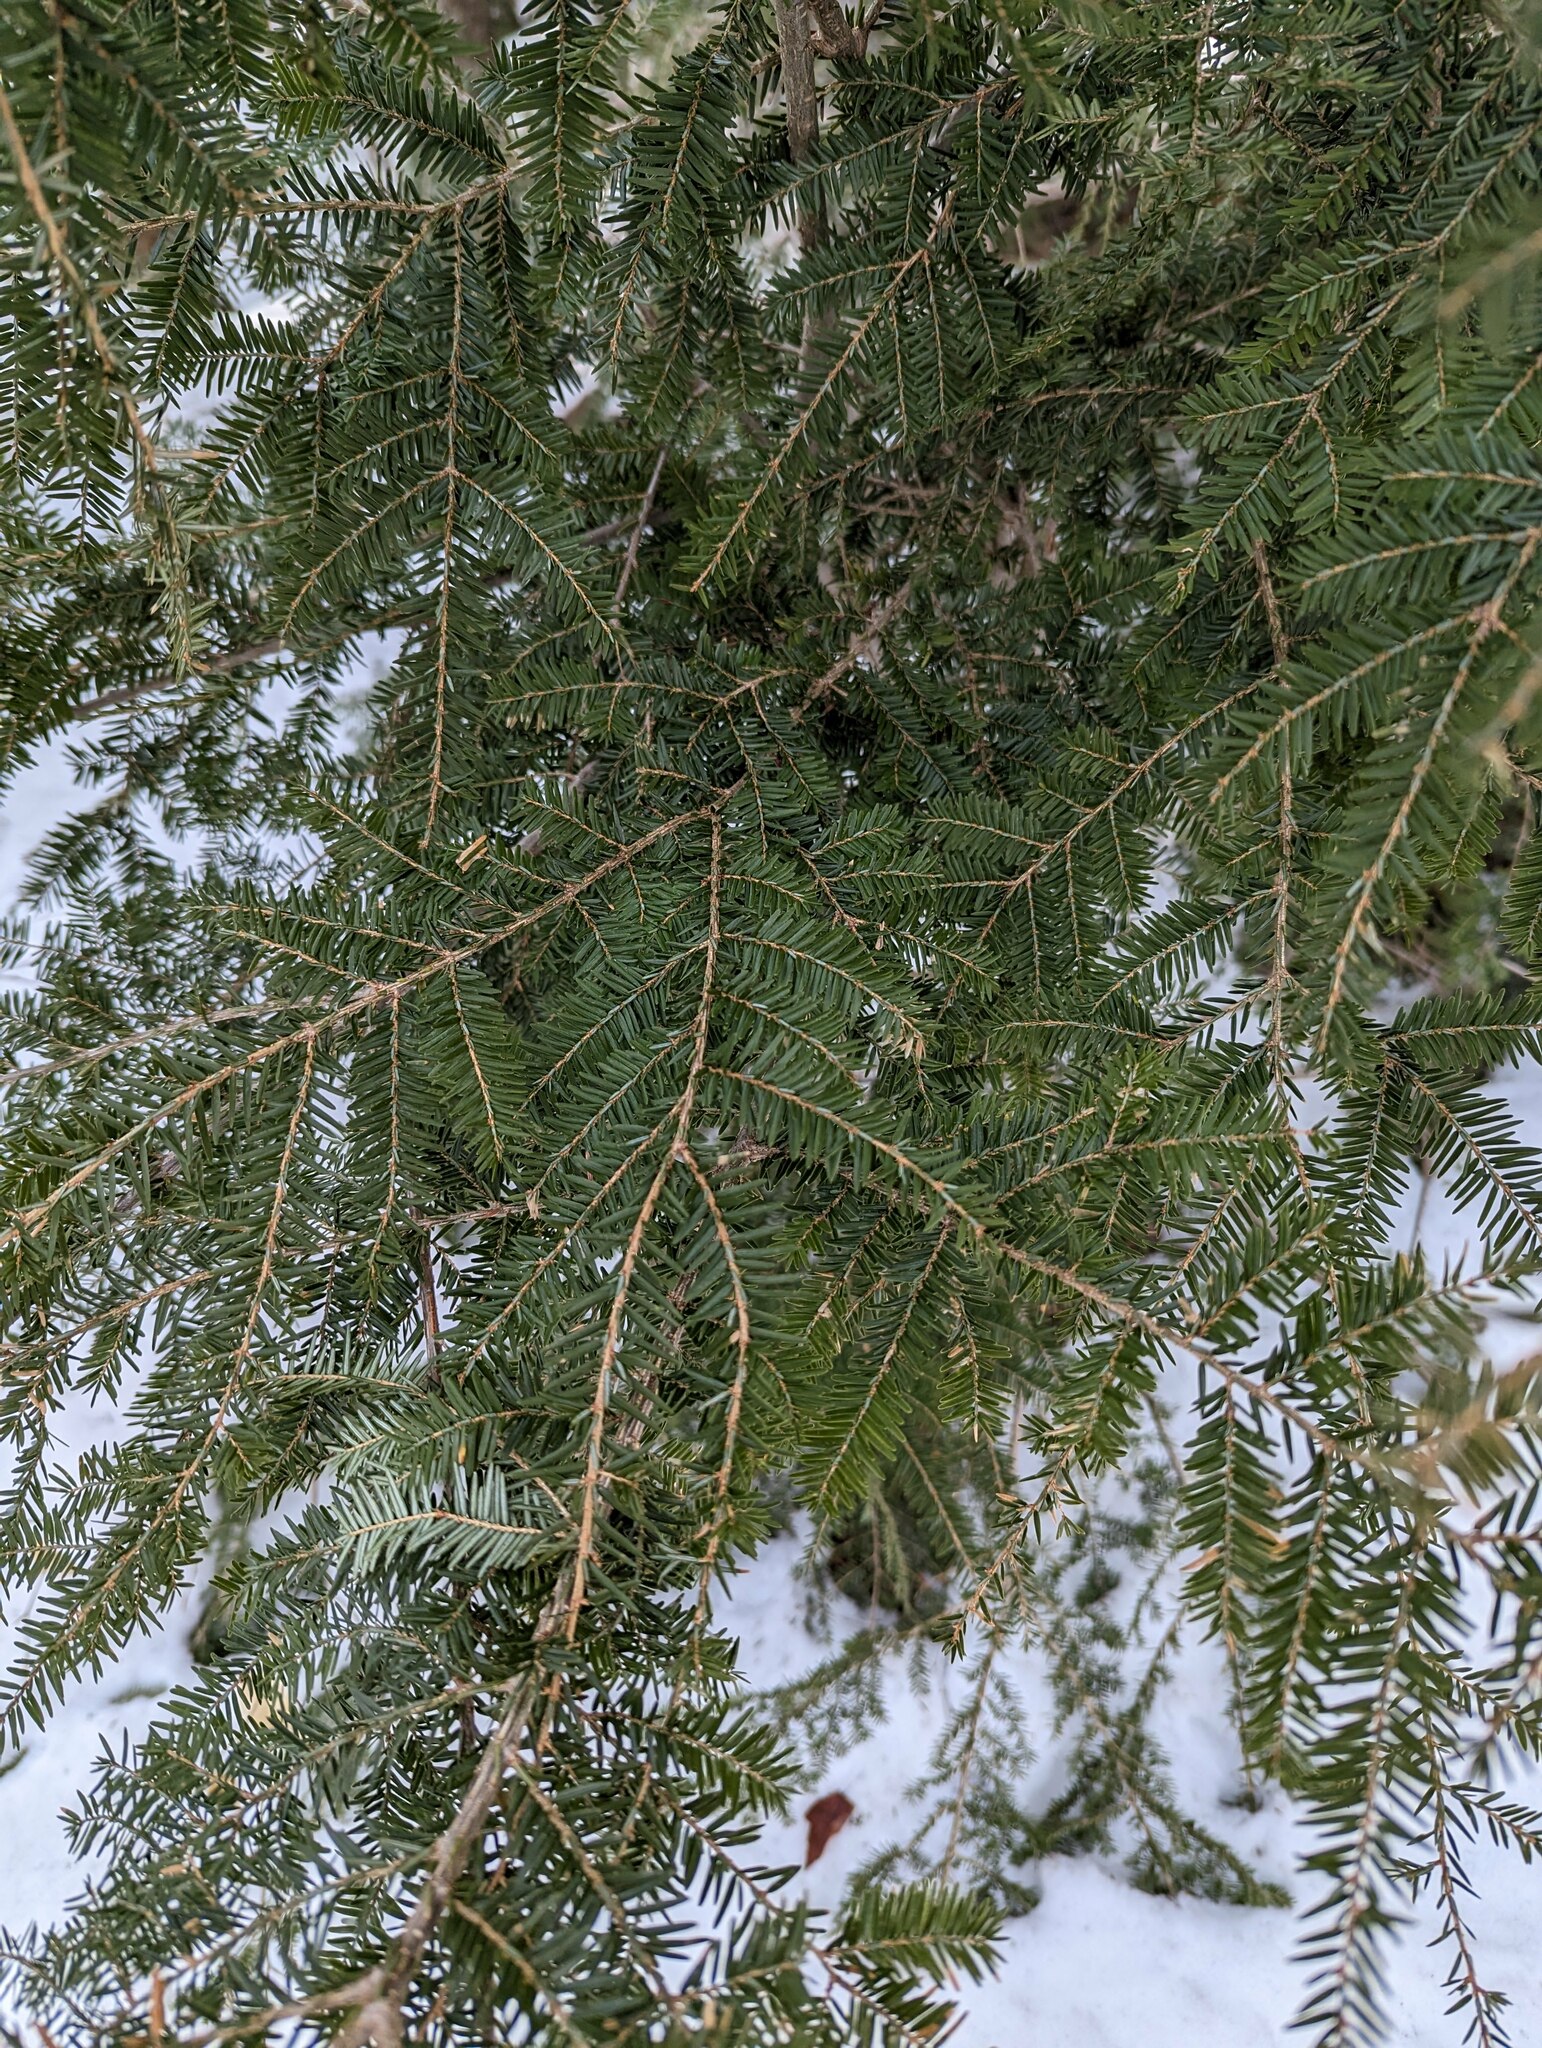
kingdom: Plantae
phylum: Tracheophyta
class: Pinopsida
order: Pinales
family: Pinaceae
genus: Tsuga
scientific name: Tsuga canadensis
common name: Eastern hemlock
